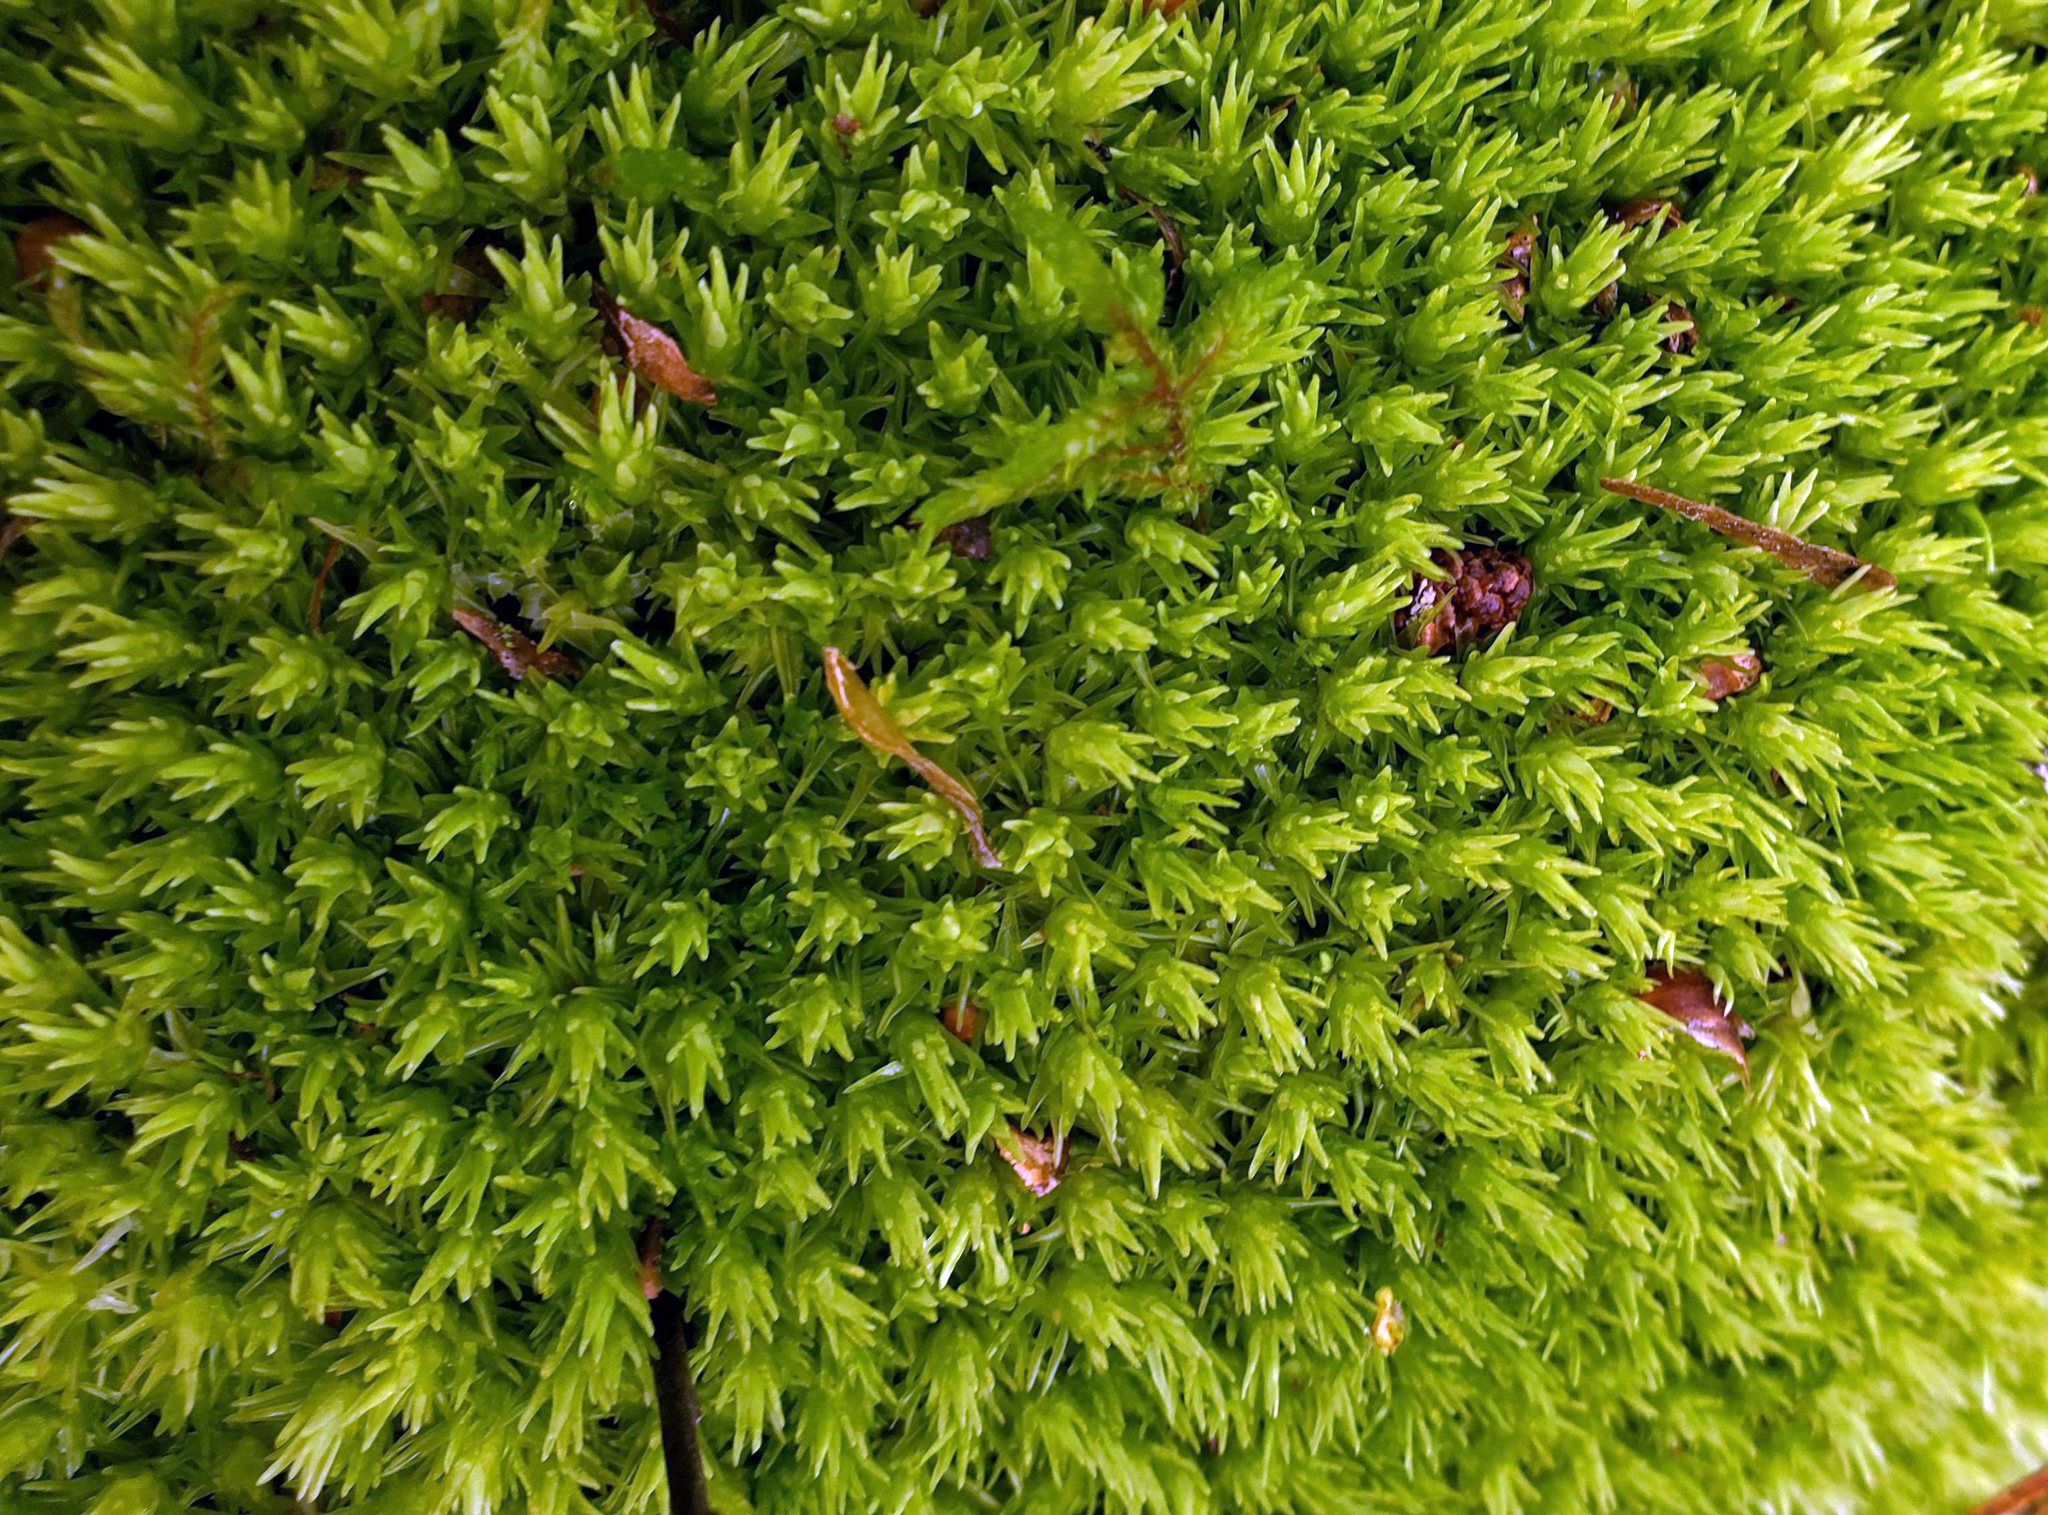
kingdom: Plantae
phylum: Bryophyta
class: Bryopsida
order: Dicranales
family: Leucobryaceae
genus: Leucobryum
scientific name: Leucobryum glaucum
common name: Large white-moss
